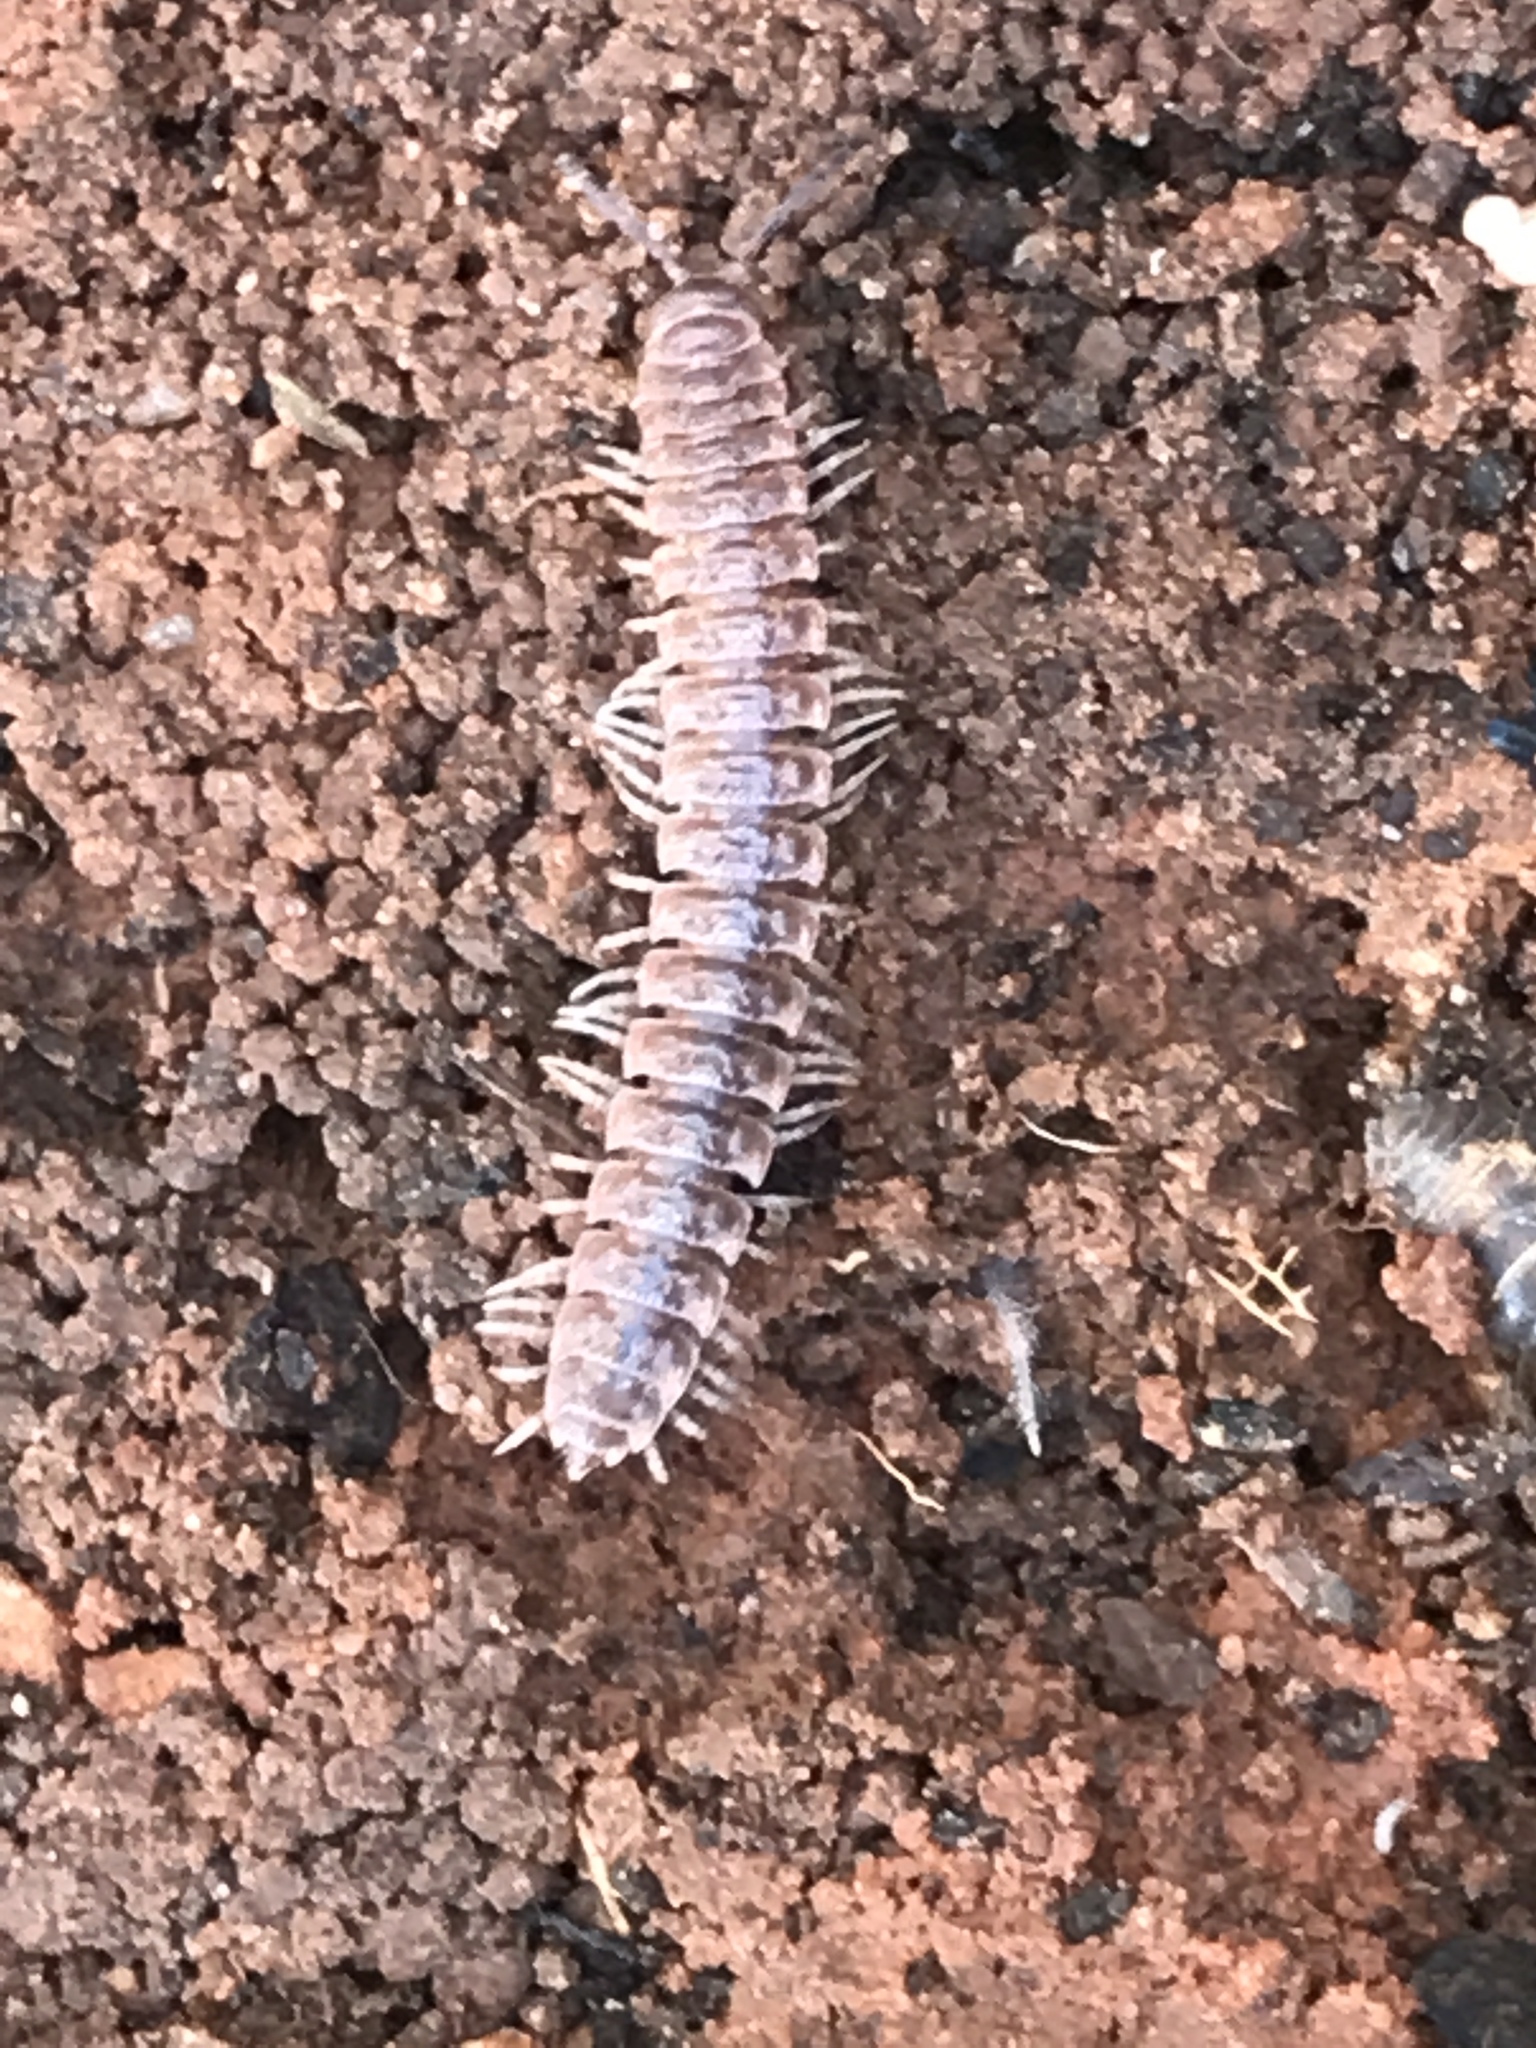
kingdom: Animalia
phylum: Arthropoda
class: Diplopoda
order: Polydesmida
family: Polydesmidae
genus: Pseudopolydesmus
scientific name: Pseudopolydesmus pinetorum
